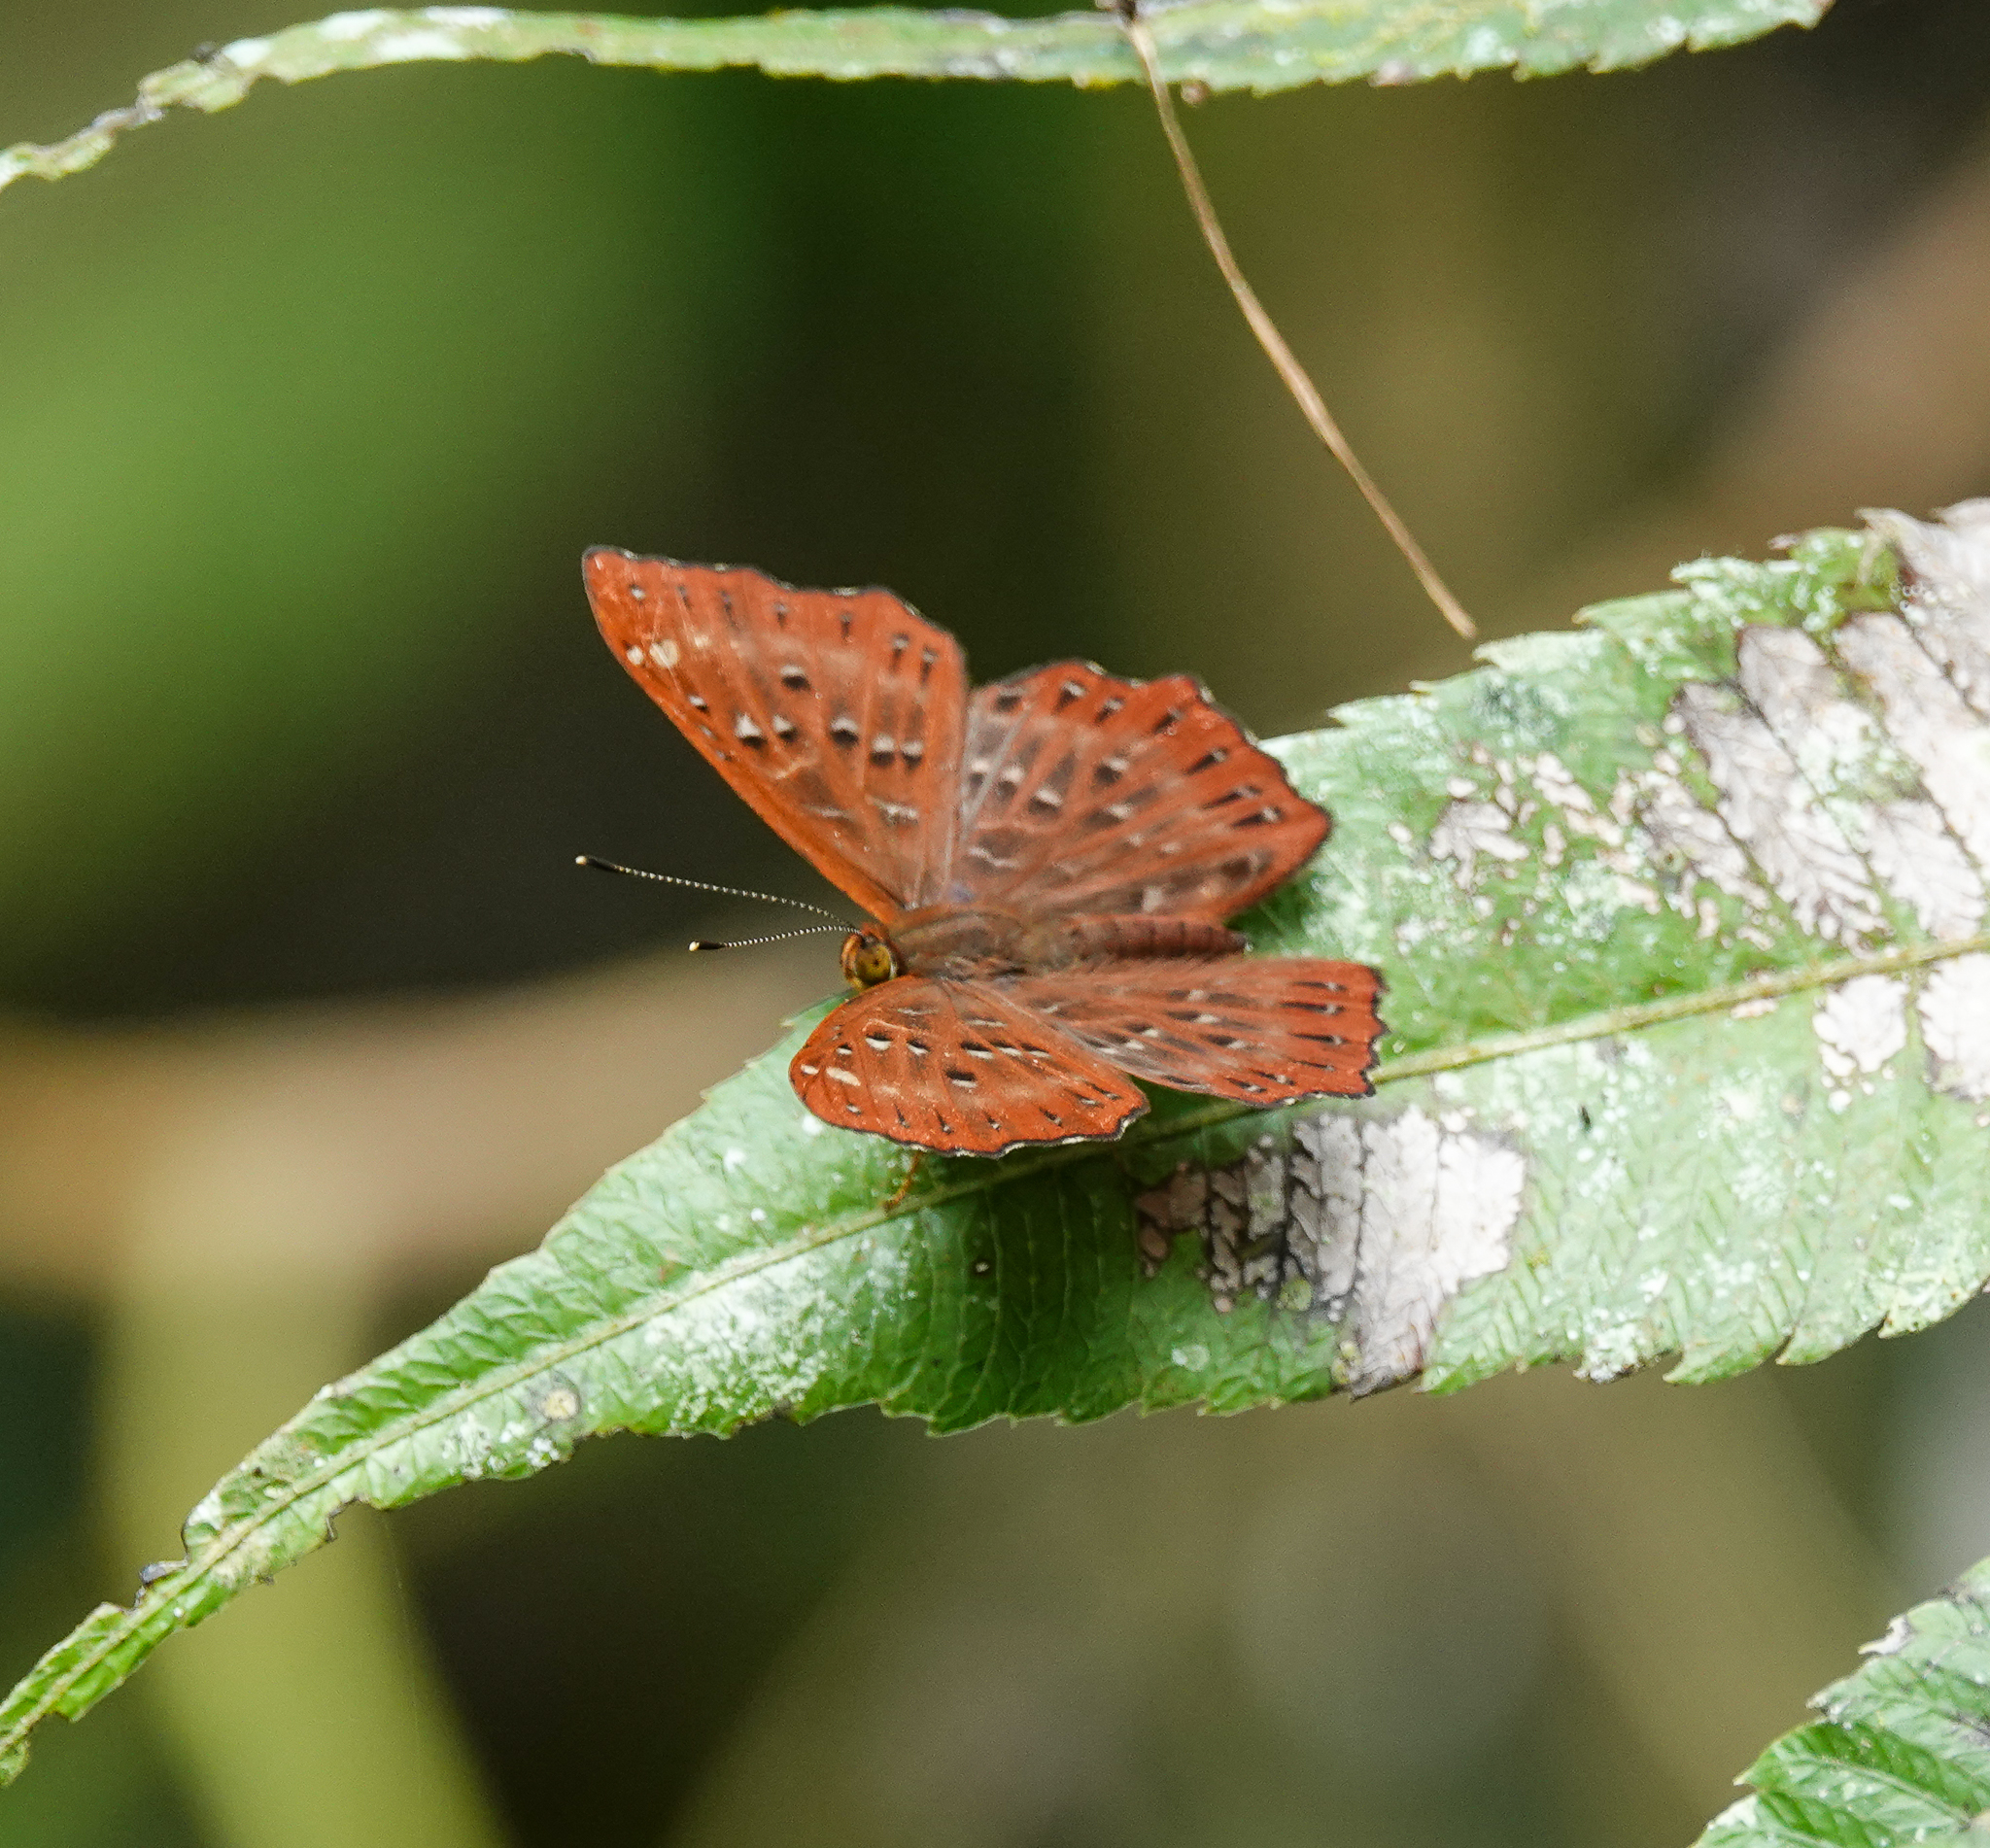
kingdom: Animalia
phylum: Arthropoda
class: Insecta
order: Lepidoptera
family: Riodinidae
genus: Zemeros
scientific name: Zemeros flegyas
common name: Punchinello
